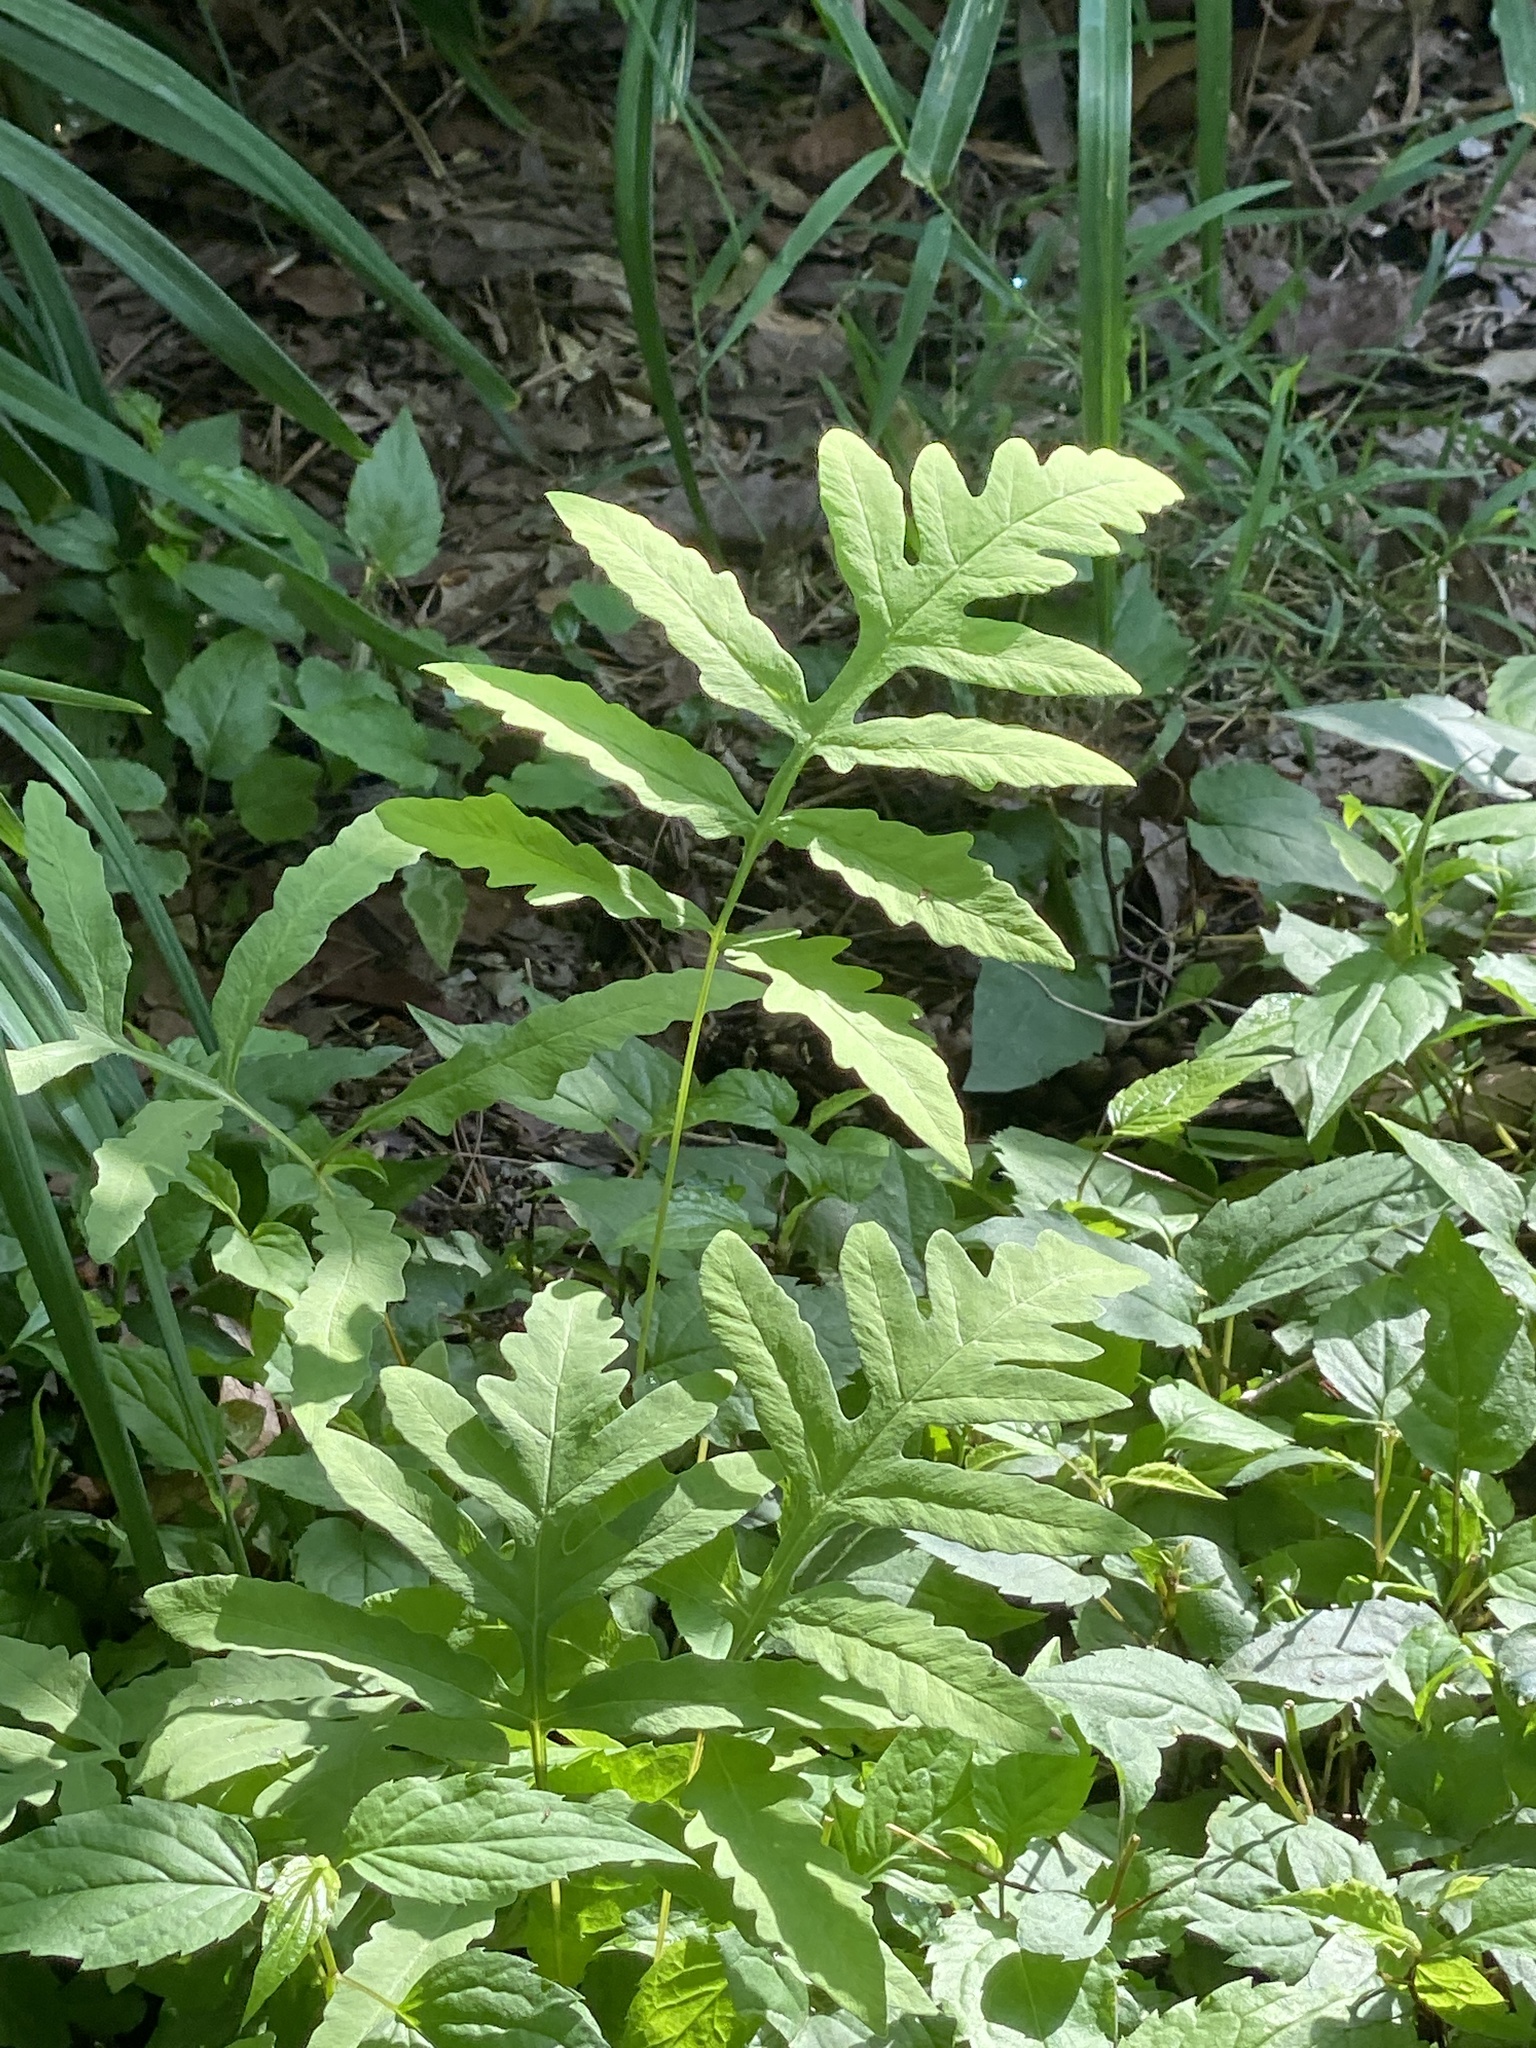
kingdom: Plantae
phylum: Tracheophyta
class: Polypodiopsida
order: Polypodiales
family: Onocleaceae
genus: Onoclea
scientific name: Onoclea sensibilis
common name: Sensitive fern
